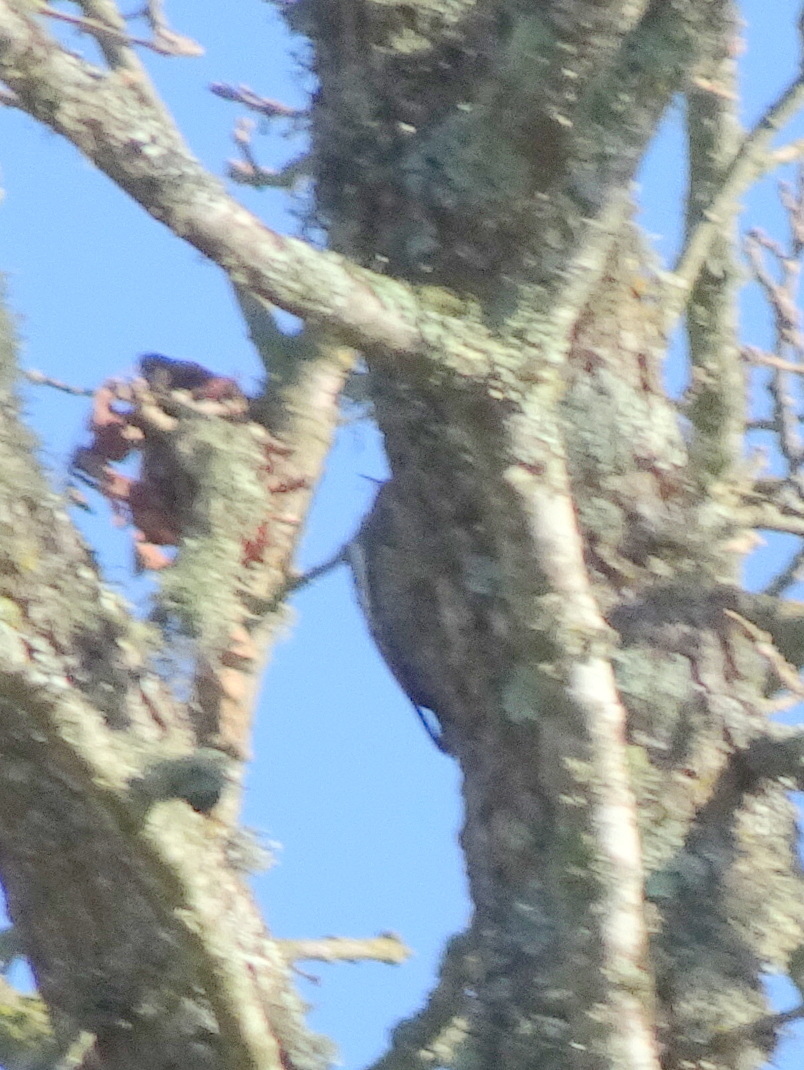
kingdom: Animalia
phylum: Chordata
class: Aves
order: Piciformes
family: Picidae
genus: Sphyrapicus
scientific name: Sphyrapicus ruber
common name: Red-breasted sapsucker
